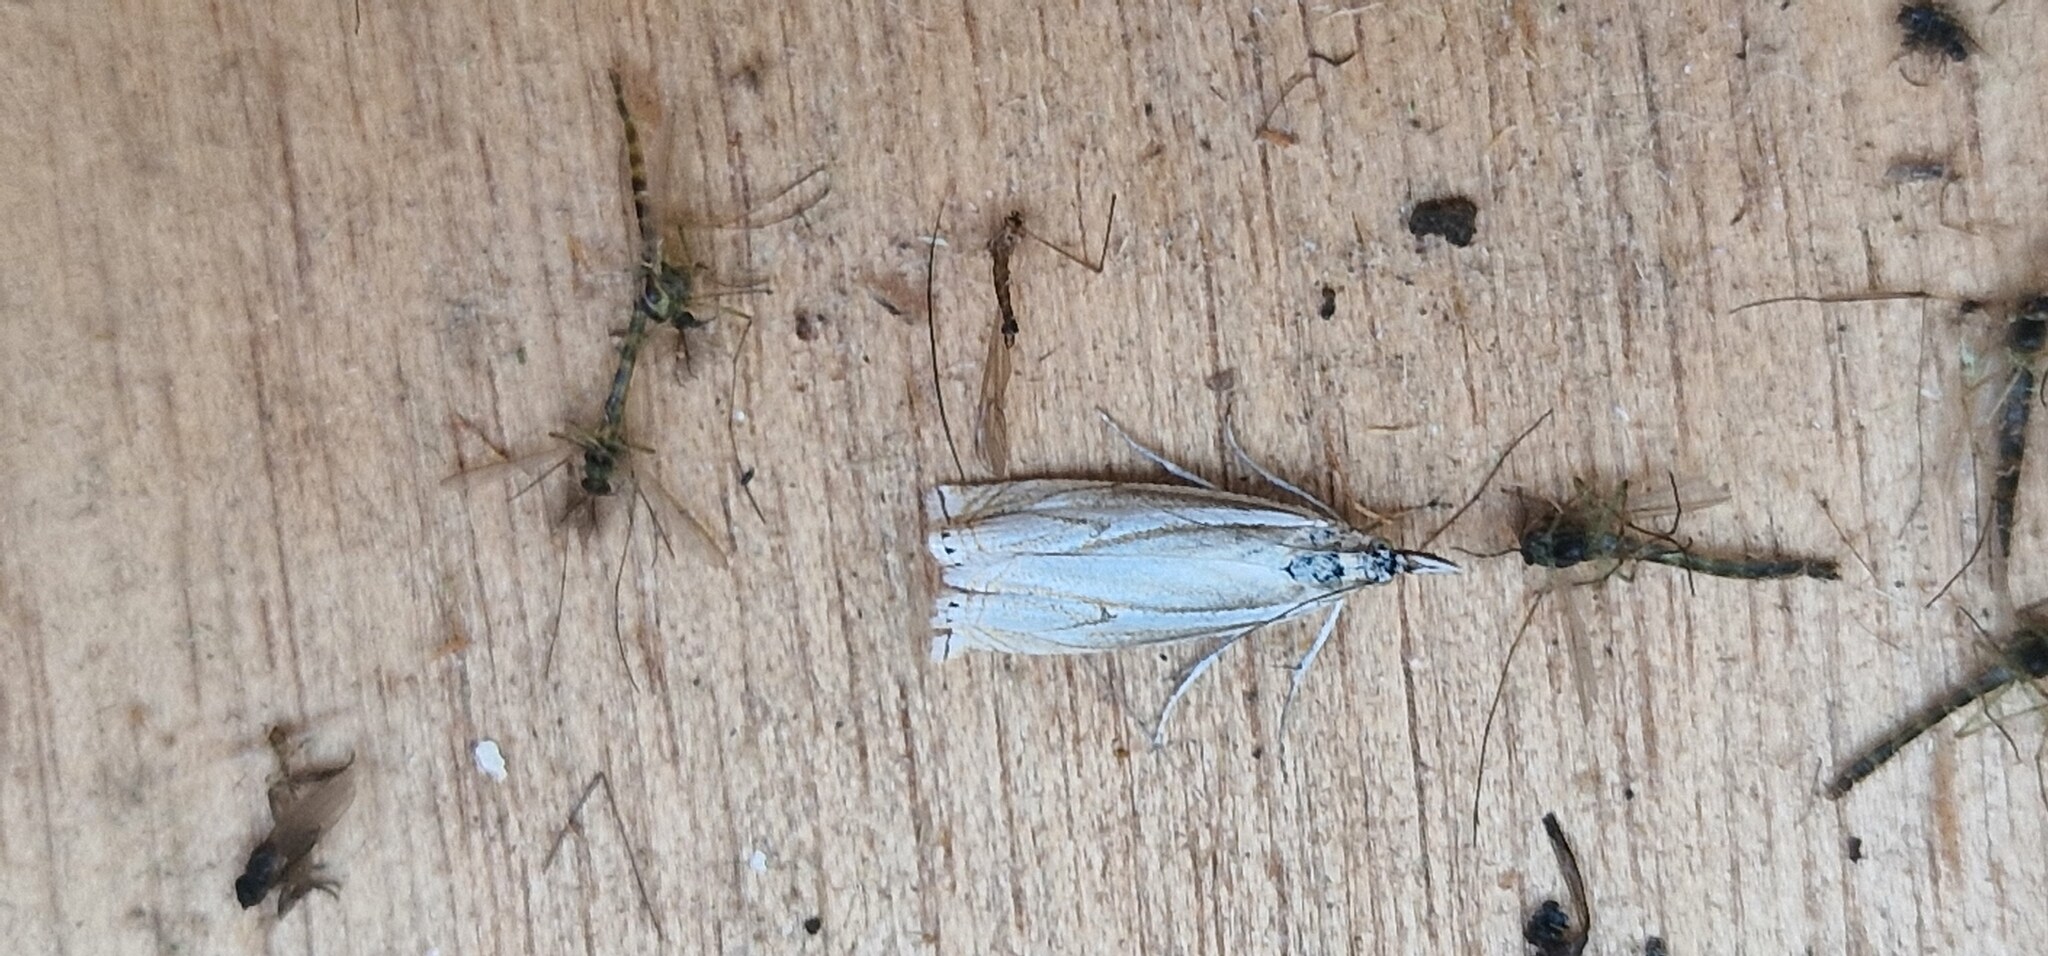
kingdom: Animalia
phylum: Arthropoda
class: Insecta
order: Lepidoptera
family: Crambidae
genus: Crambus
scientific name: Crambus nemorella
